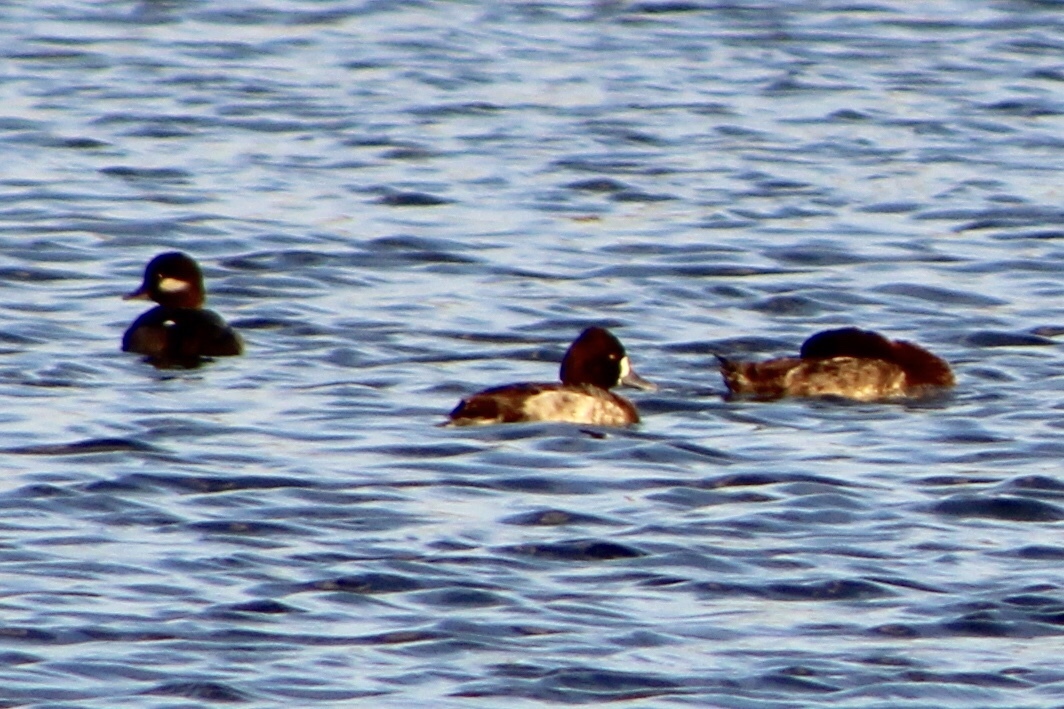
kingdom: Animalia
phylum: Chordata
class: Aves
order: Anseriformes
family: Anatidae
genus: Aythya
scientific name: Aythya affinis
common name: Lesser scaup
